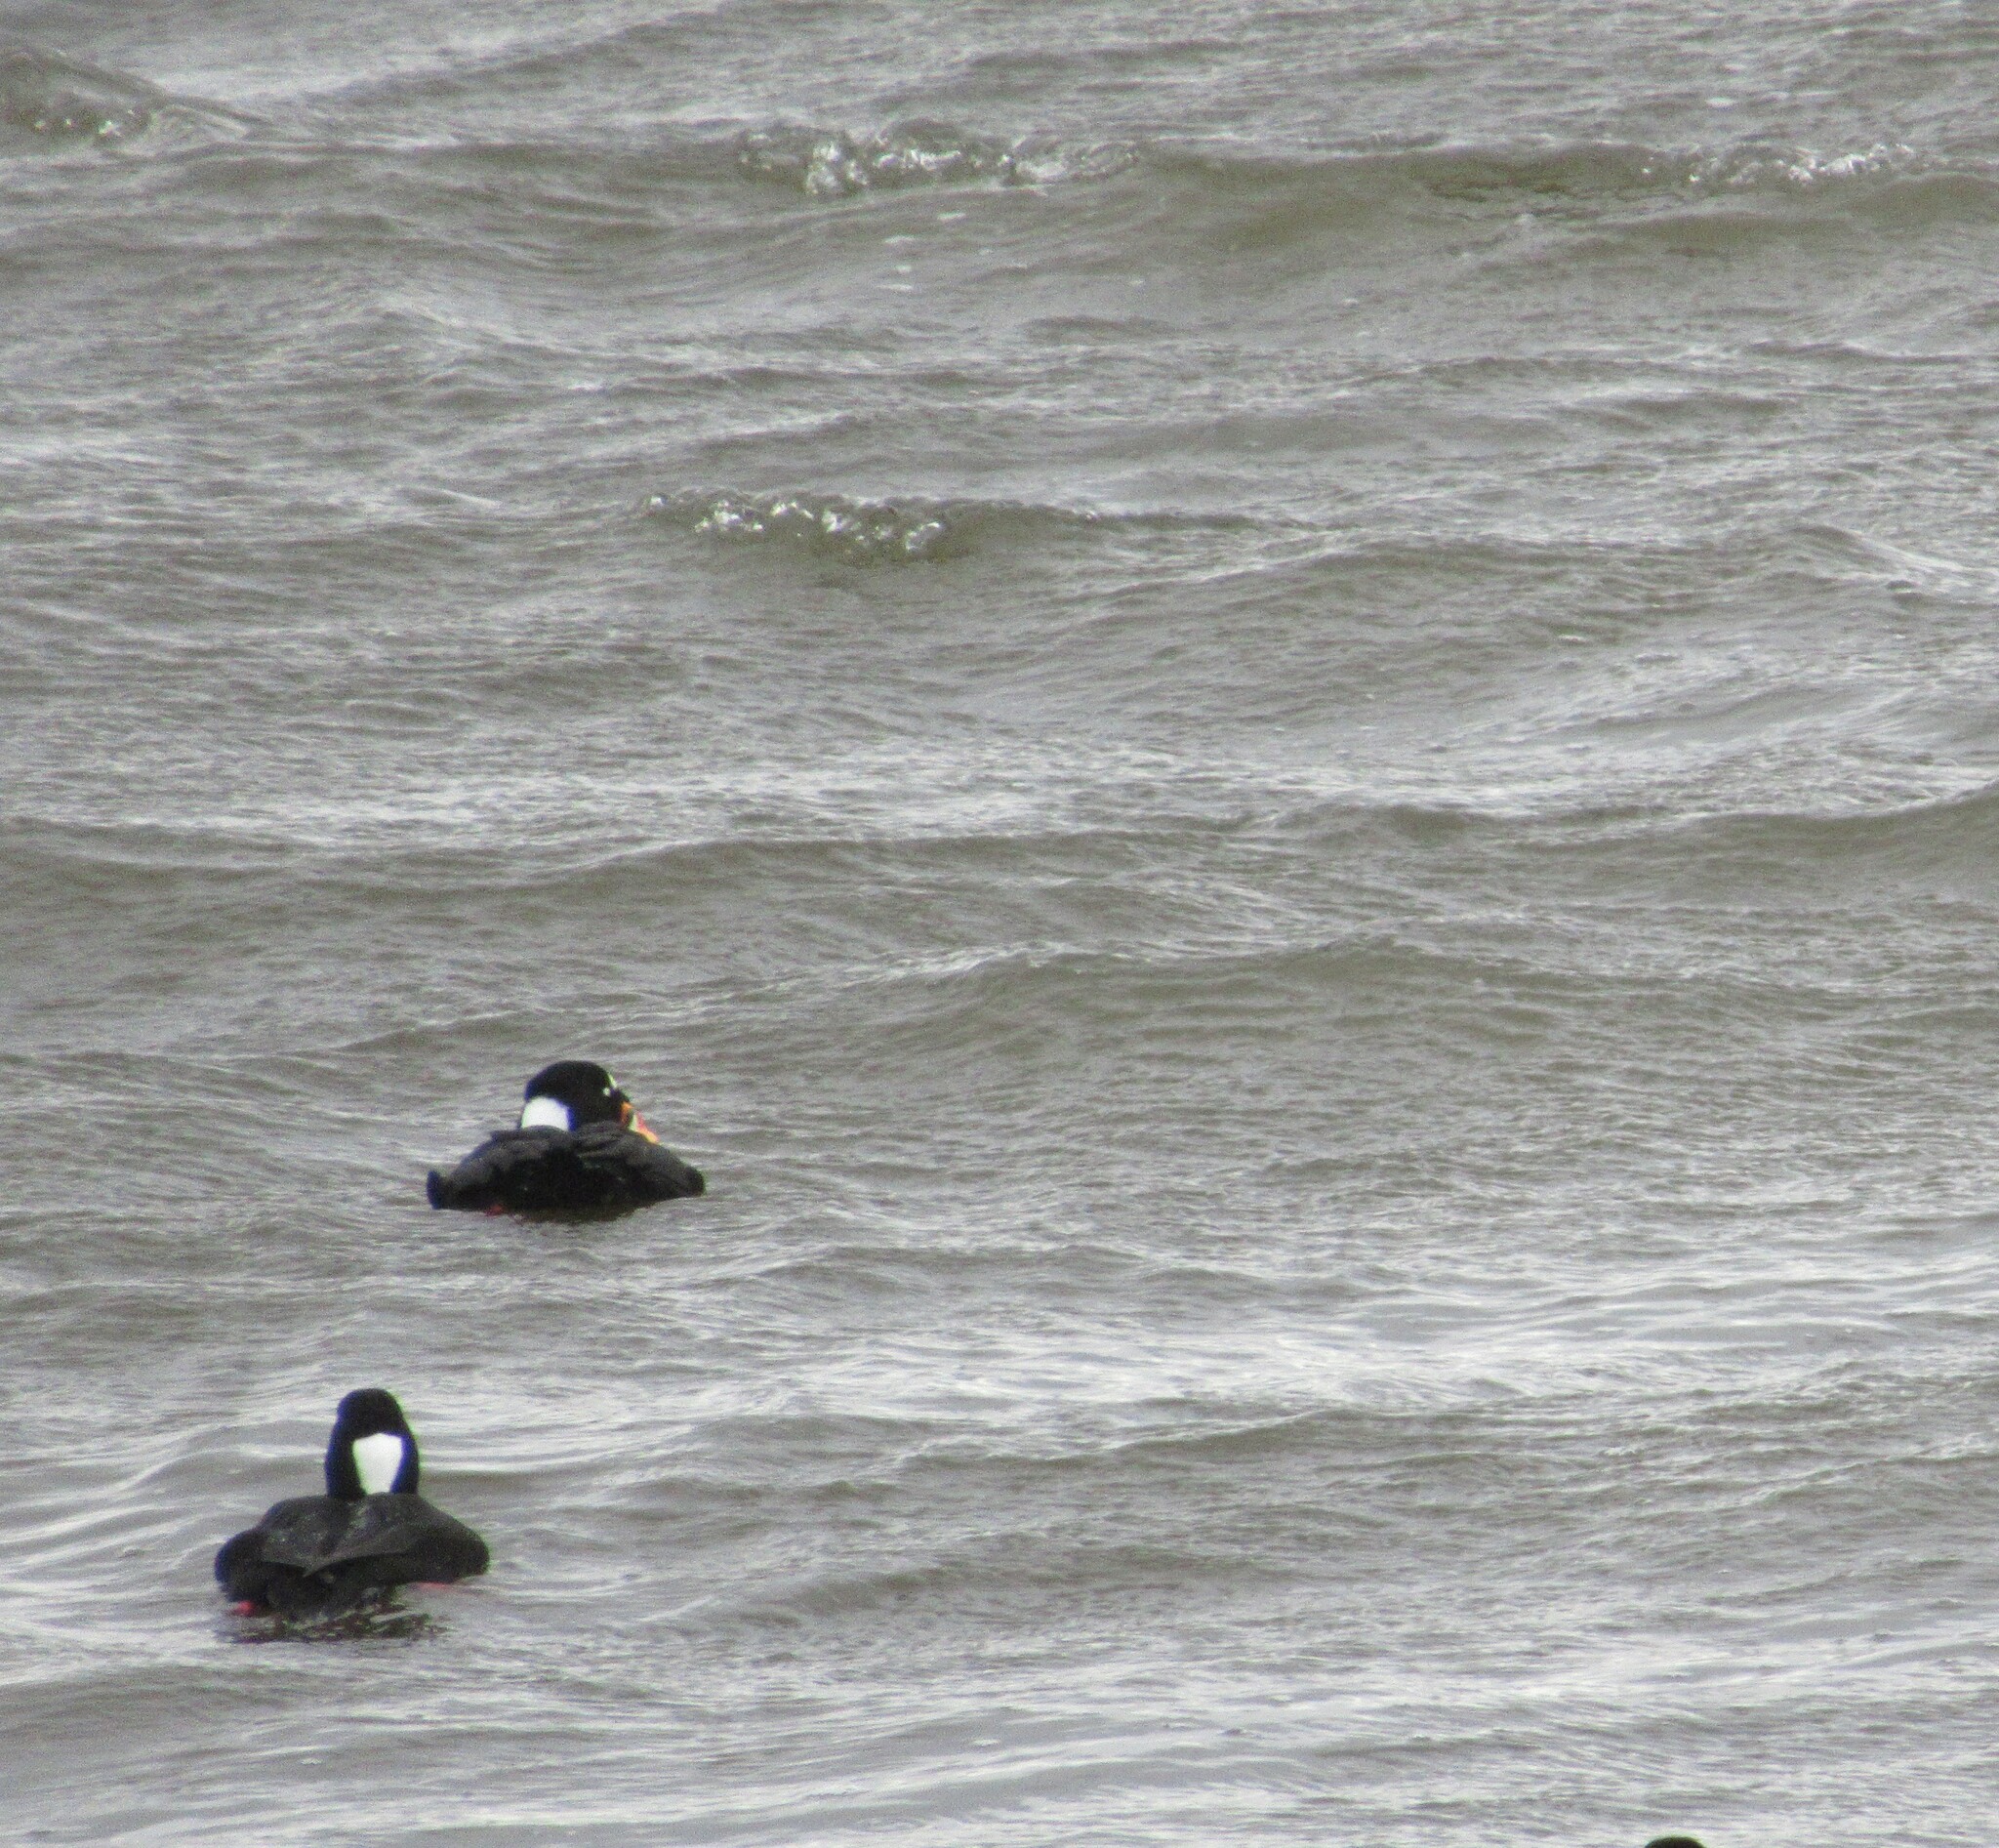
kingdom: Animalia
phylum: Chordata
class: Aves
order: Anseriformes
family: Anatidae
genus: Melanitta
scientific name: Melanitta perspicillata
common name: Surf scoter
